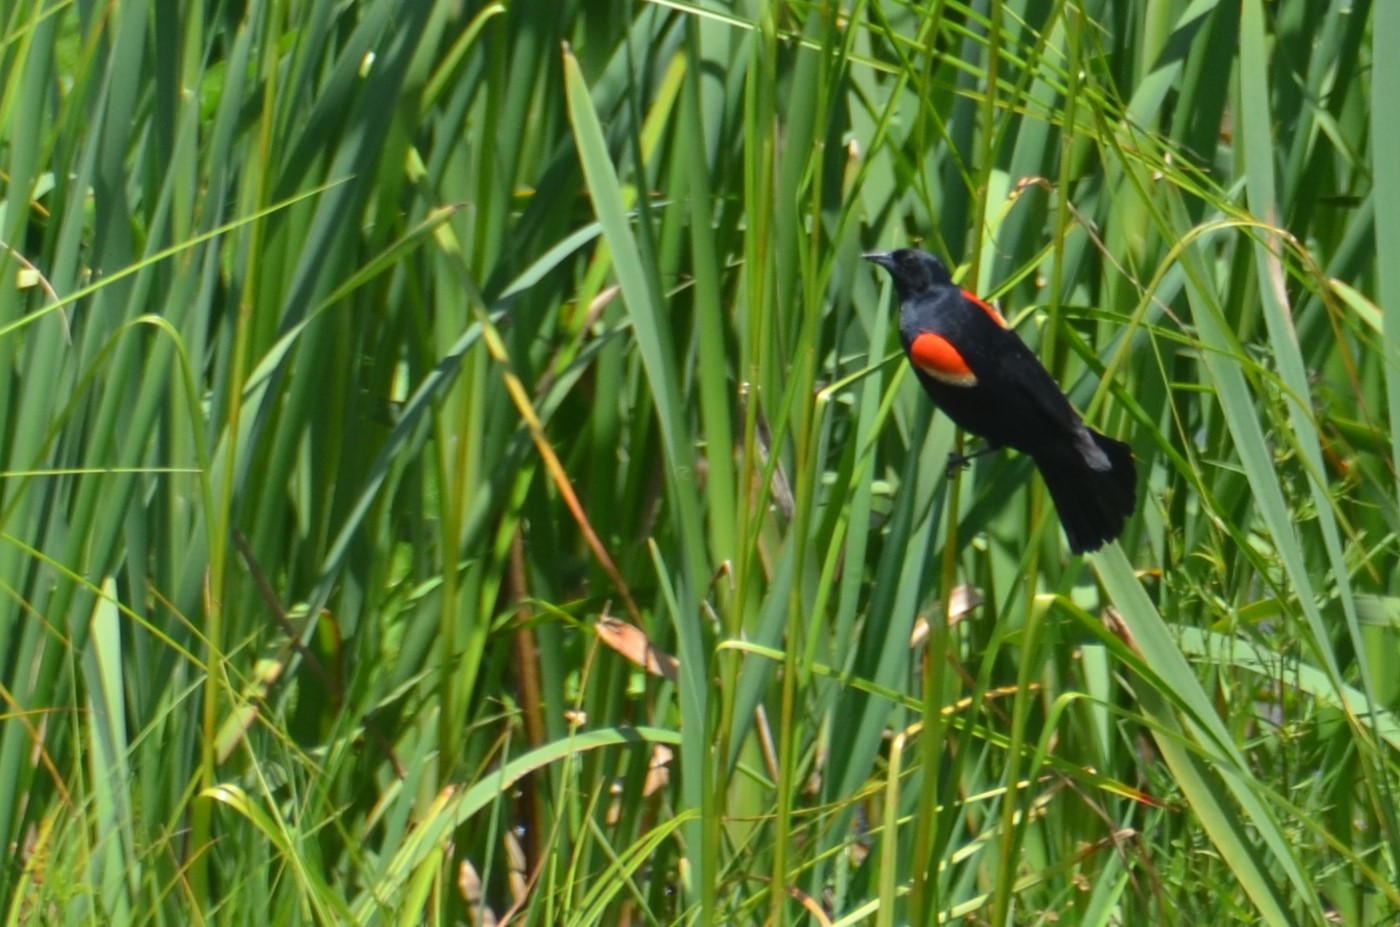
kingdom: Animalia
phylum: Chordata
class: Aves
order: Passeriformes
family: Icteridae
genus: Agelaius
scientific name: Agelaius phoeniceus
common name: Red-winged blackbird
